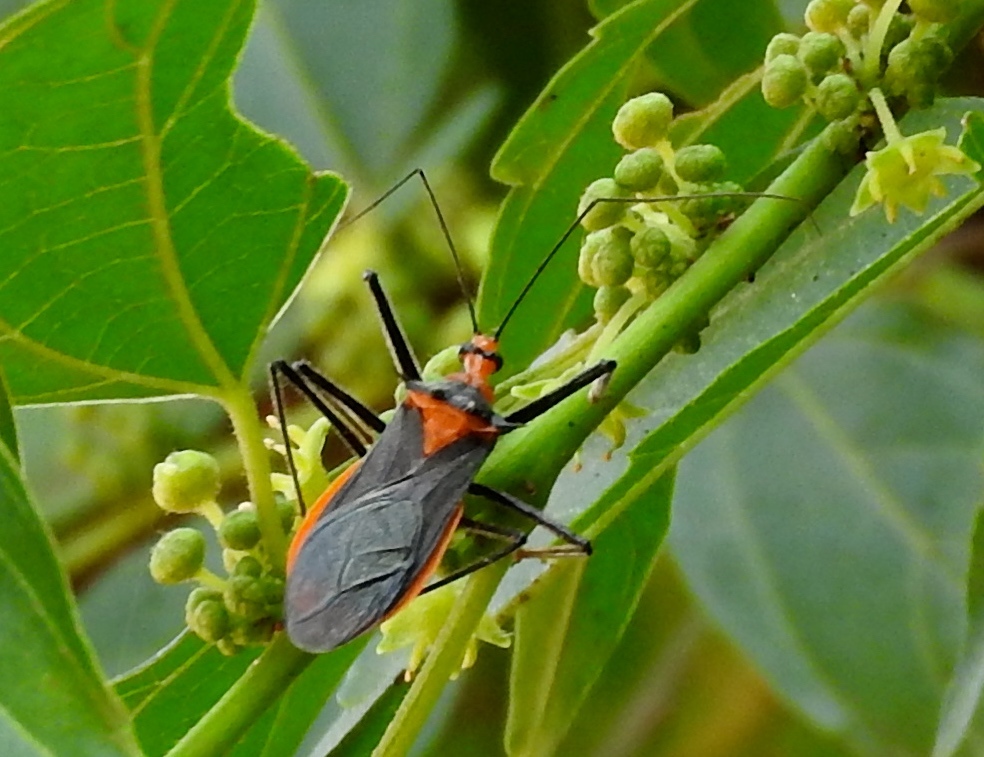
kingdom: Animalia
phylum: Arthropoda
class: Insecta
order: Hemiptera
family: Reduviidae
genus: Repipta
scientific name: Repipta fuscipes
